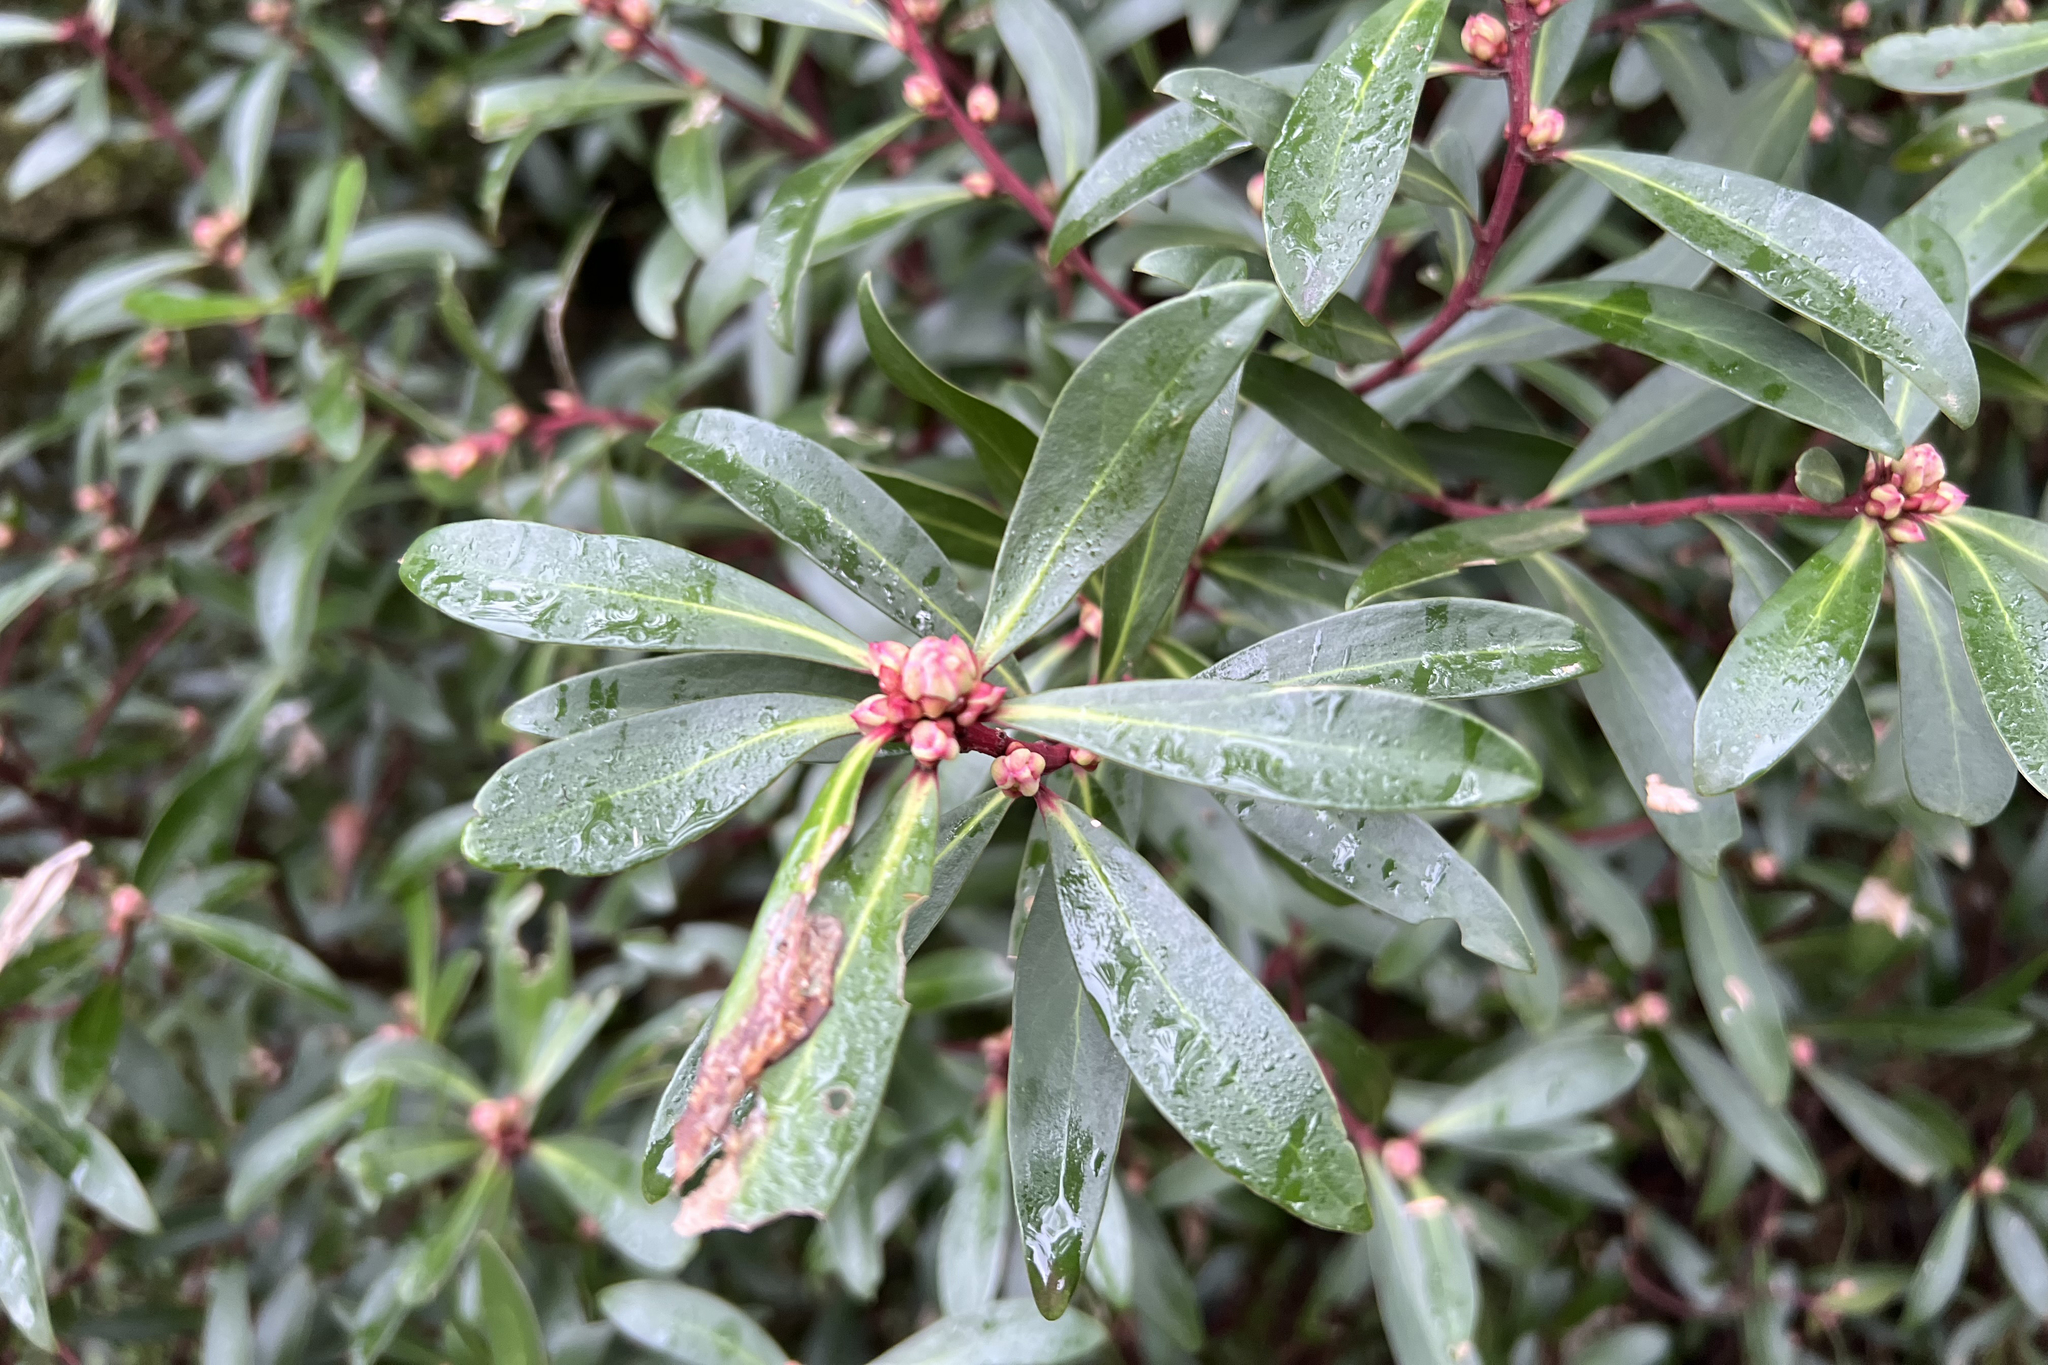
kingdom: Plantae
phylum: Tracheophyta
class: Magnoliopsida
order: Canellales
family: Winteraceae
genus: Drimys
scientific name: Drimys aromatica
